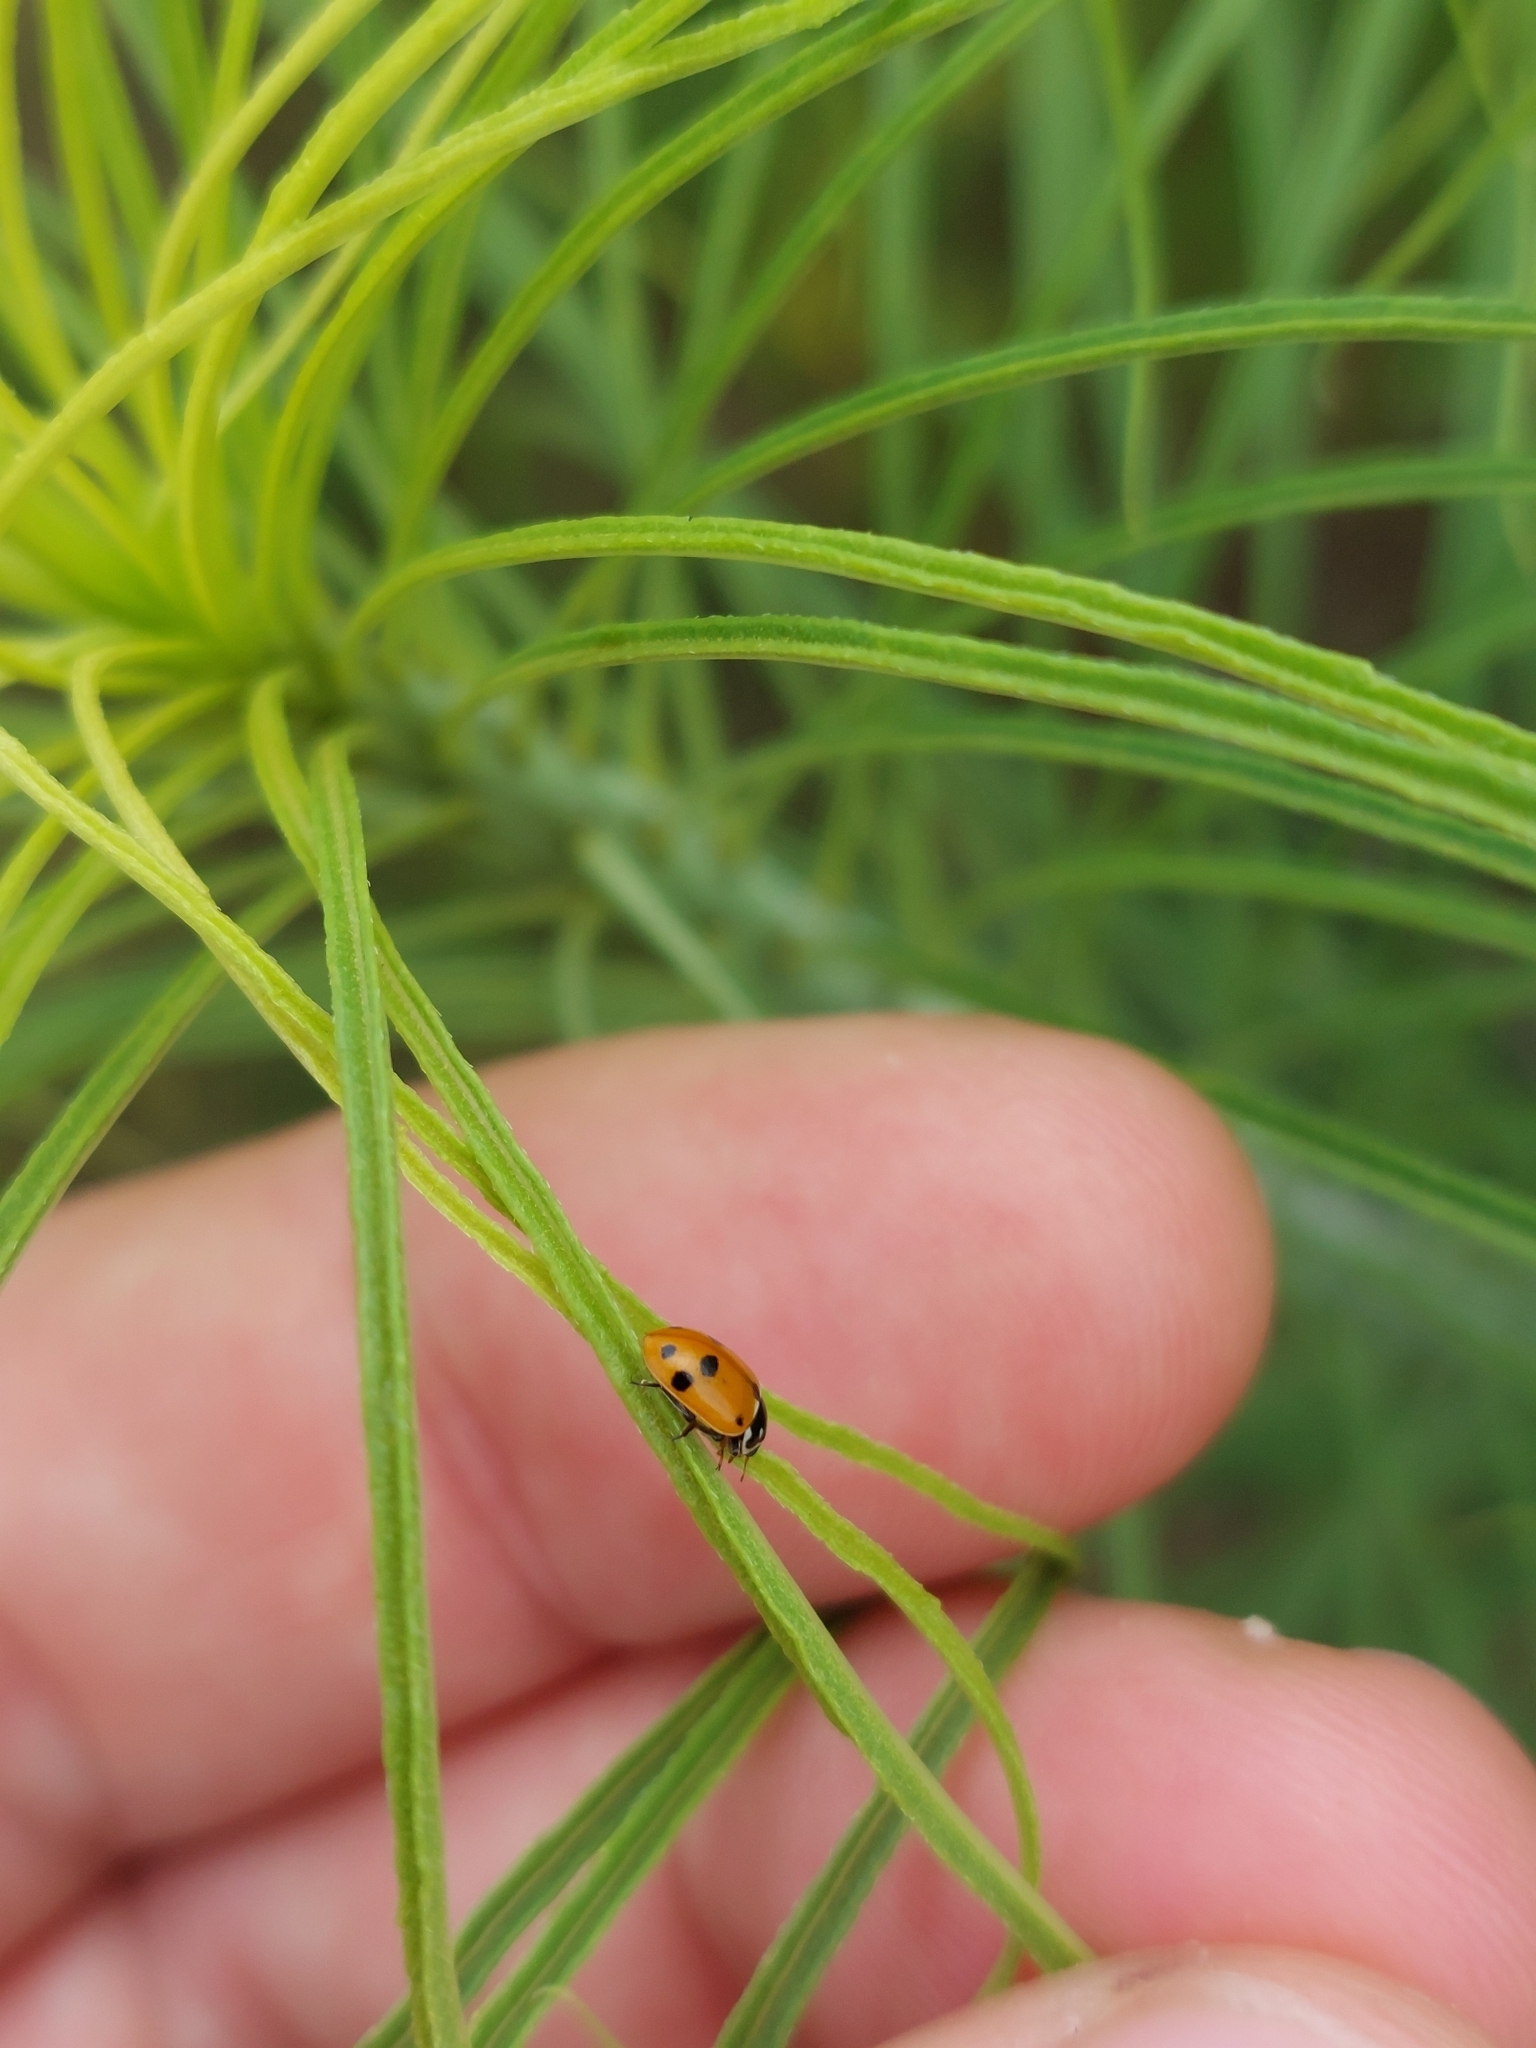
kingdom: Animalia
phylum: Arthropoda
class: Insecta
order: Coleoptera
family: Coccinellidae
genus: Hippodamia
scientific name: Hippodamia variegata
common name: Ladybird beetle
